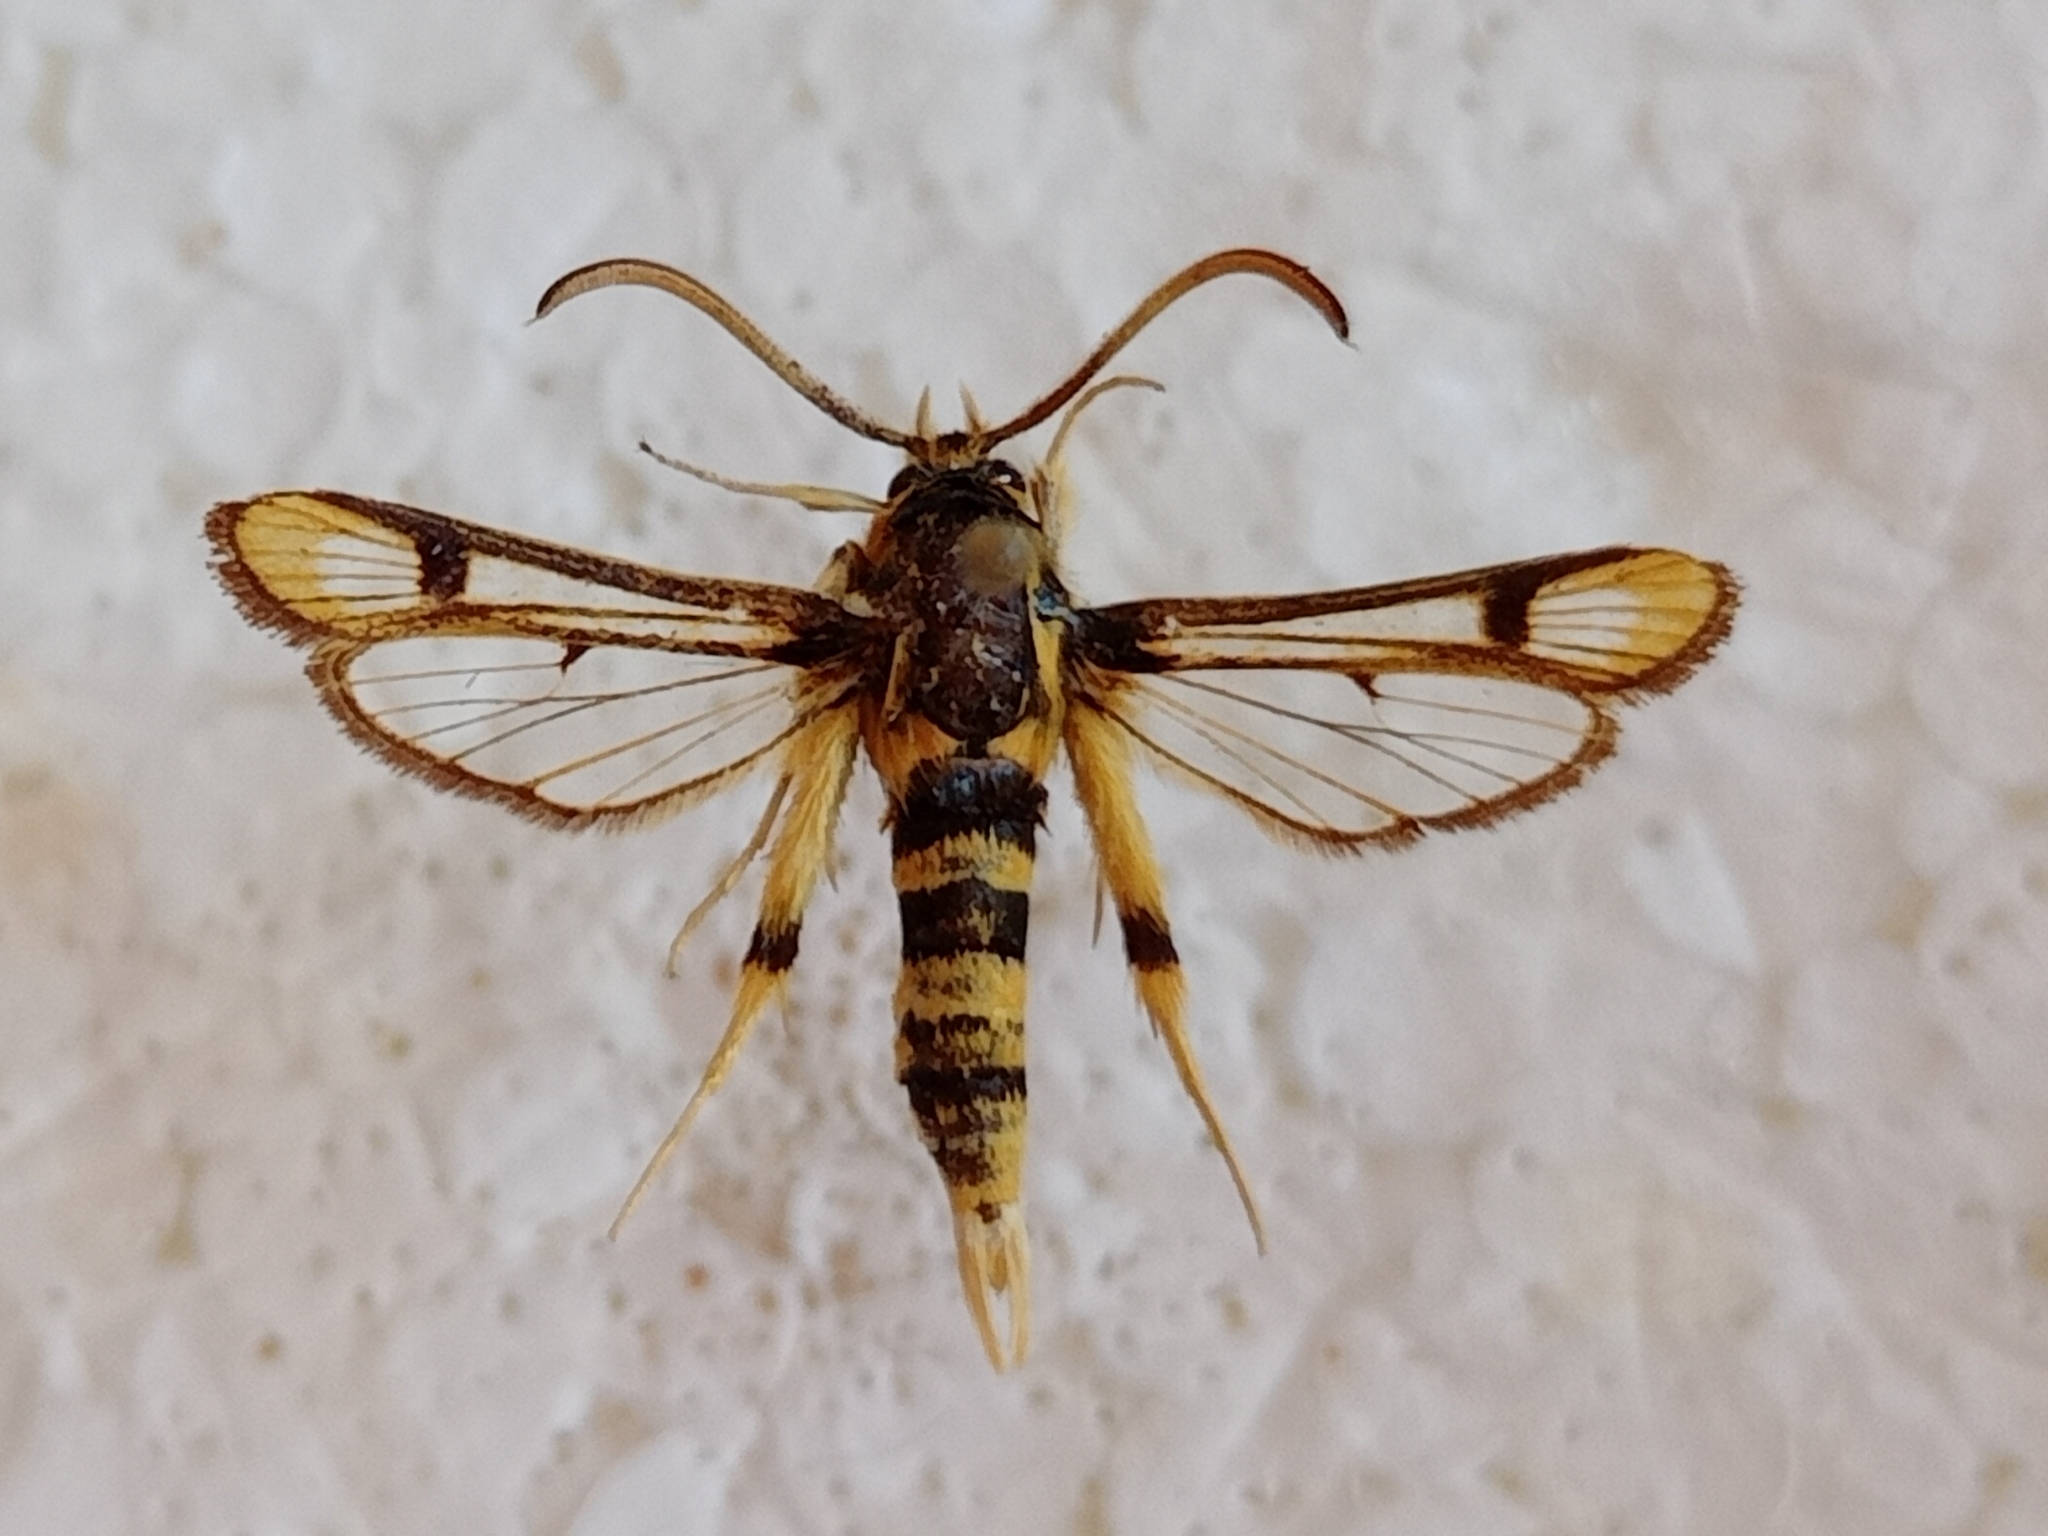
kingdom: Animalia
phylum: Arthropoda
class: Insecta
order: Lepidoptera
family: Sesiidae
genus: Chamaesphecia
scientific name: Chamaesphecia masariformis
